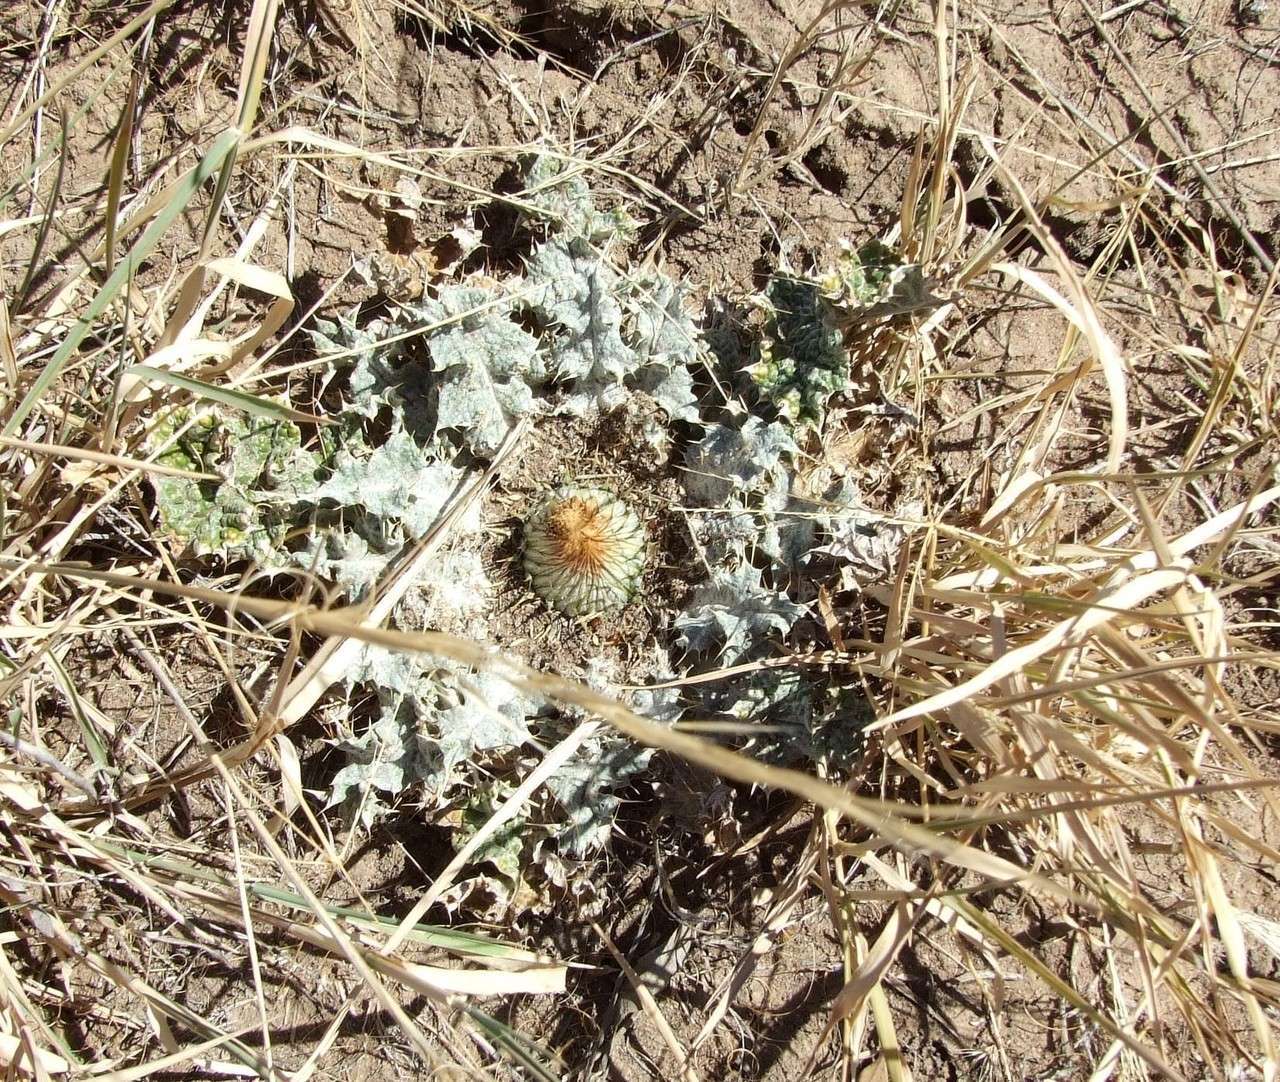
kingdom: Plantae
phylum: Tracheophyta
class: Magnoliopsida
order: Asterales
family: Asteraceae
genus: Onopordum
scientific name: Onopordum acaulon
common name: Horse thistle
